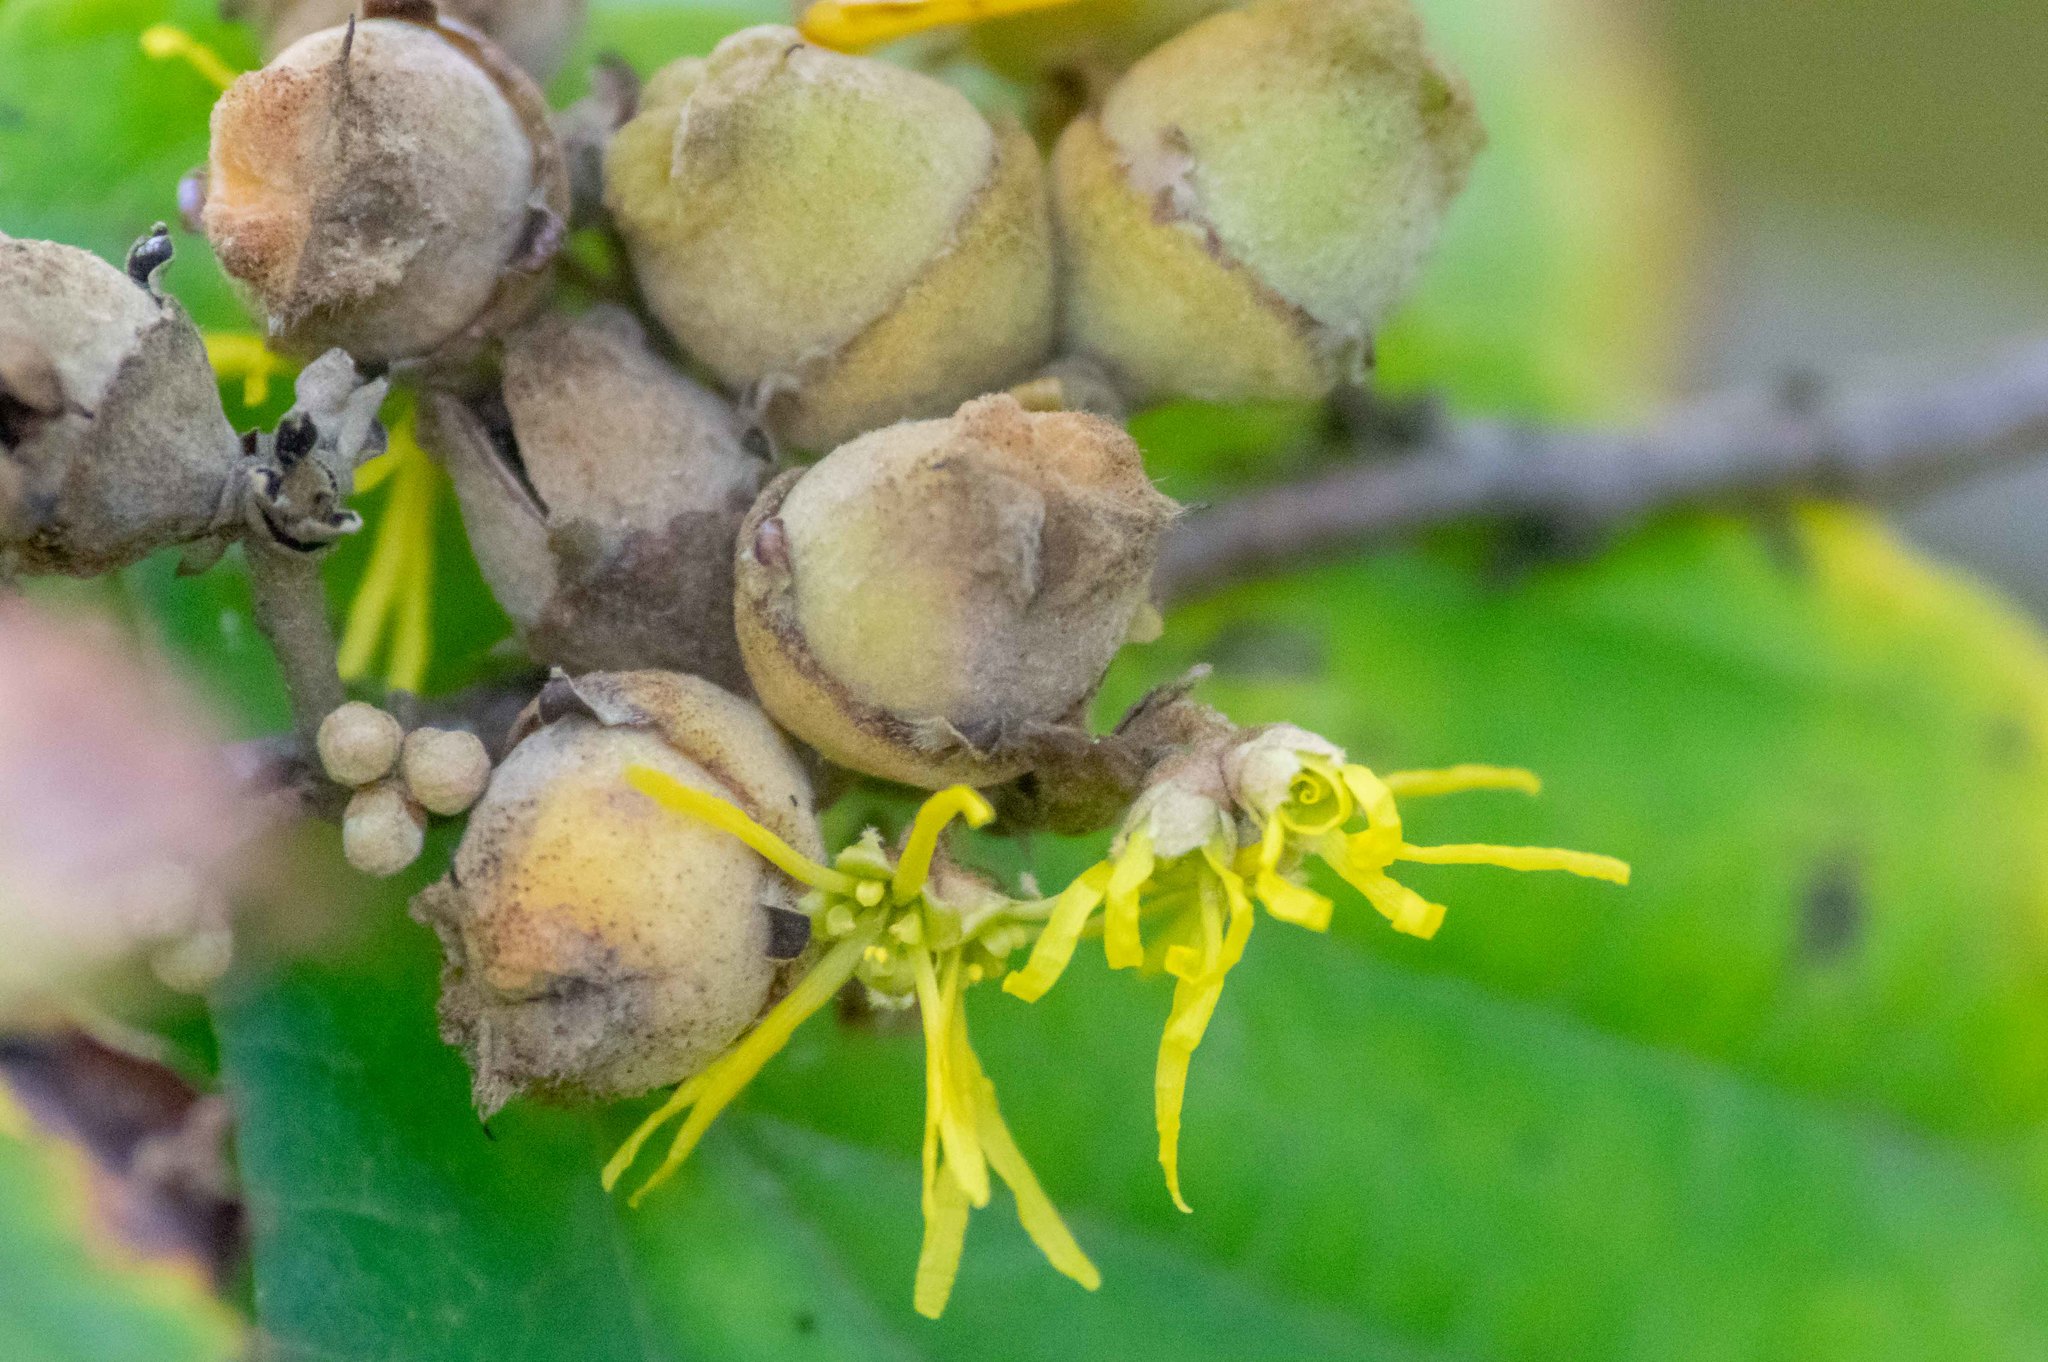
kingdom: Plantae
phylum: Tracheophyta
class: Magnoliopsida
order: Saxifragales
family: Hamamelidaceae
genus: Hamamelis
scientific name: Hamamelis virginiana
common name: Witch-hazel
